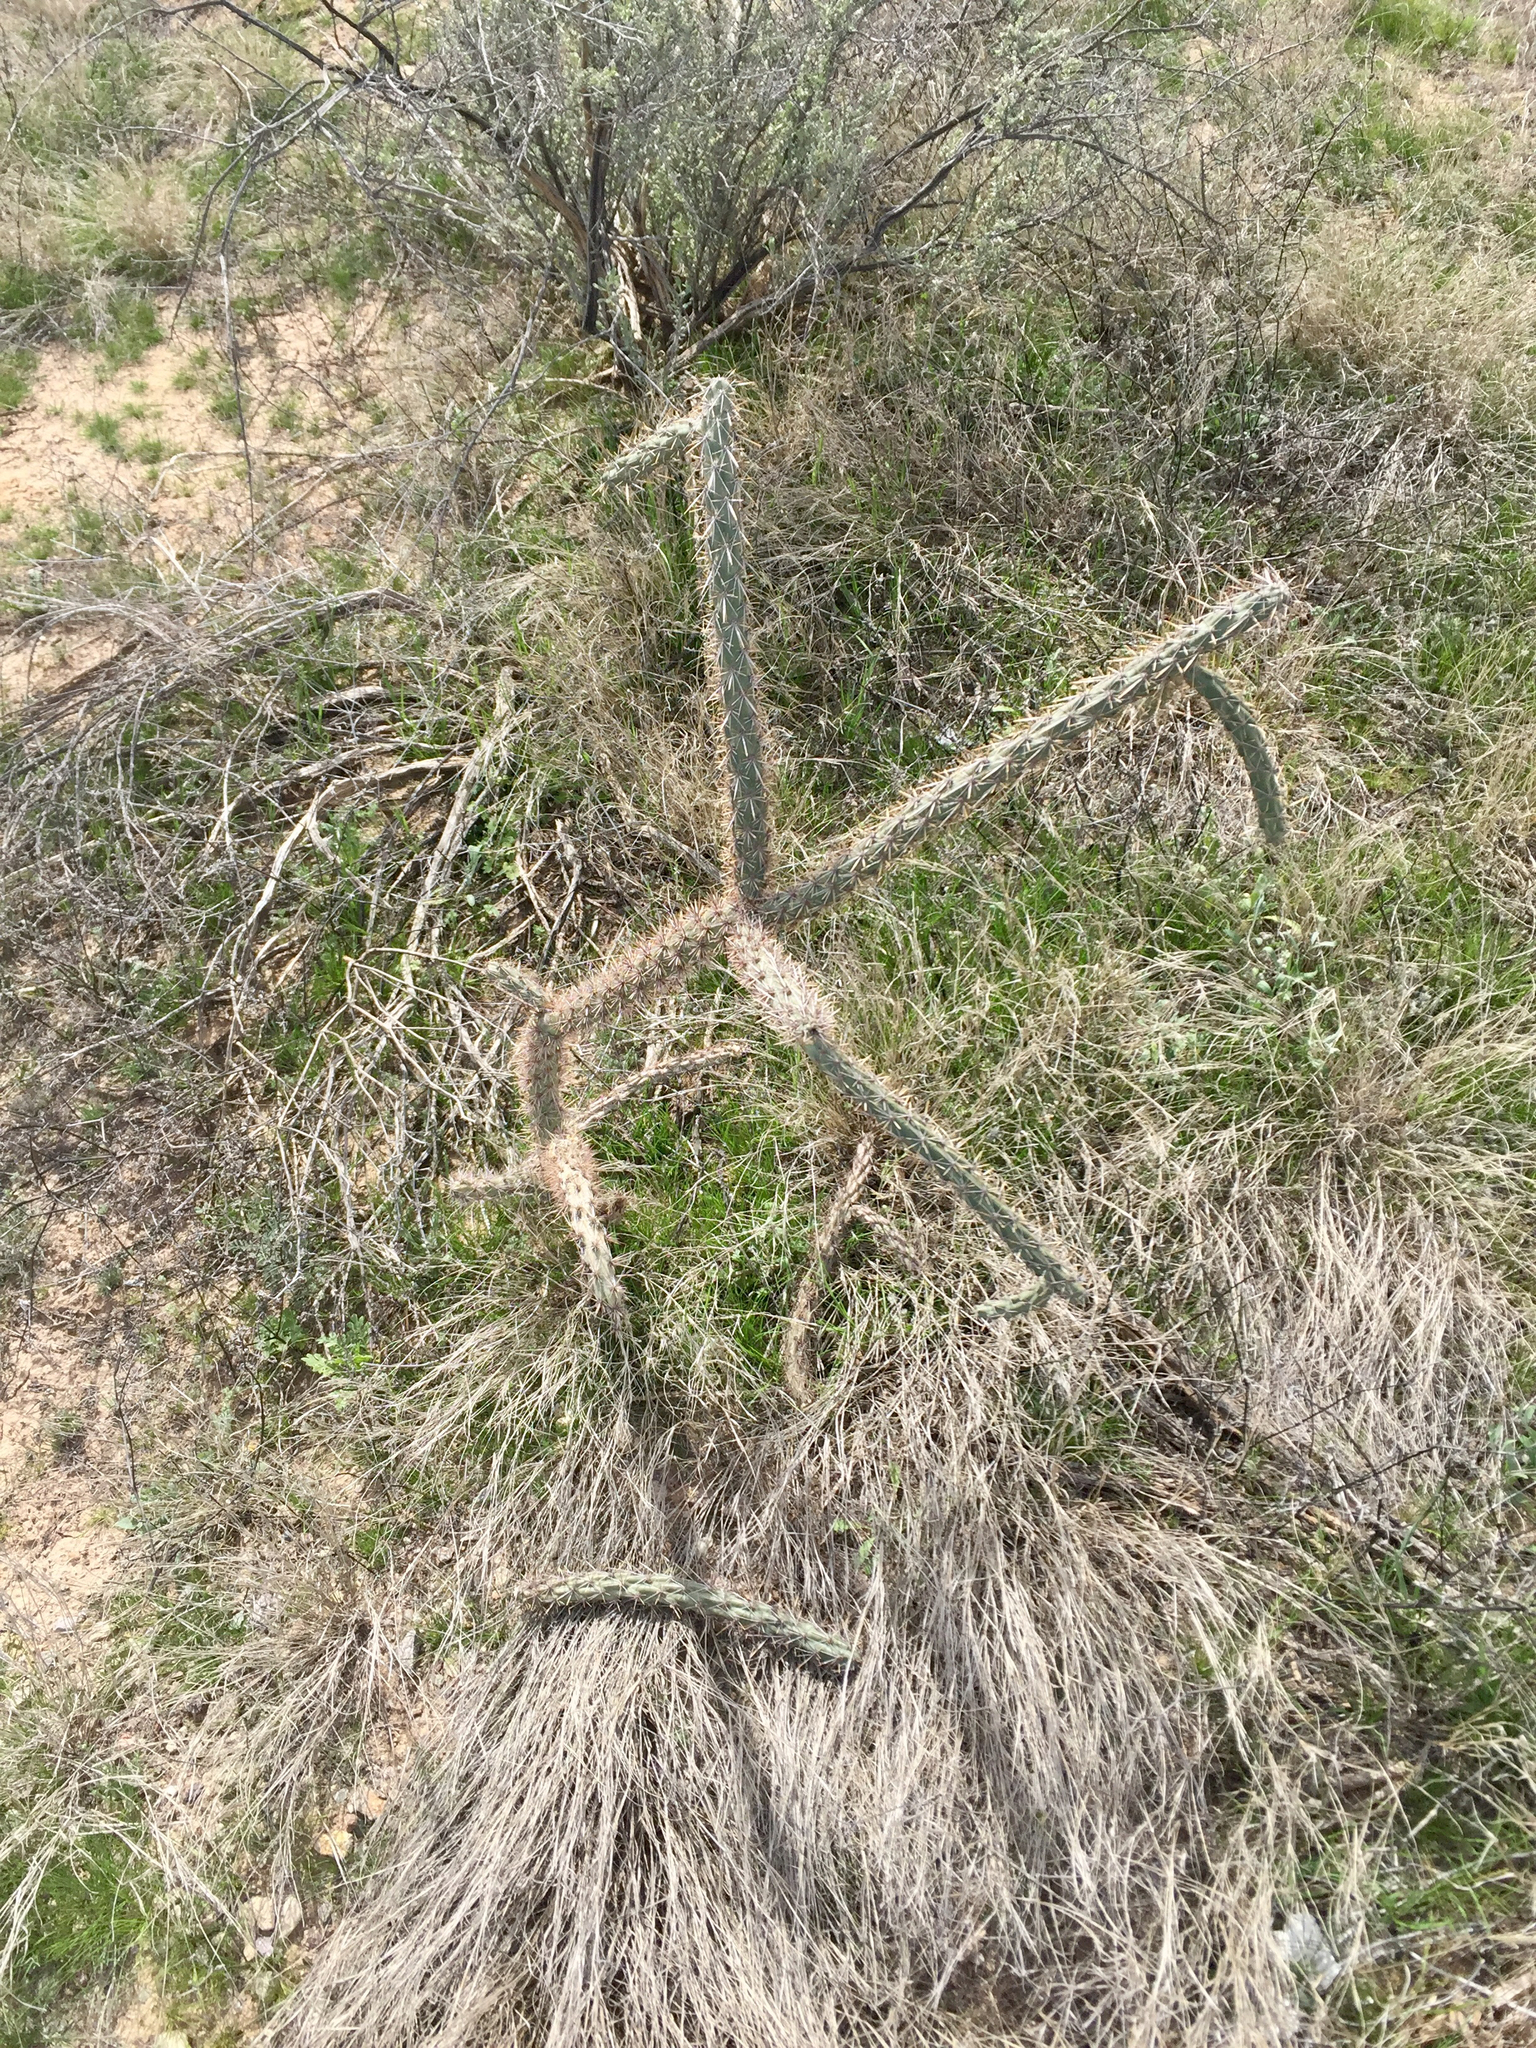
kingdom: Plantae
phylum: Tracheophyta
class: Magnoliopsida
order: Caryophyllales
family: Cactaceae
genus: Cylindropuntia
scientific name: Cylindropuntia acanthocarpa
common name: Buckhorn cholla
